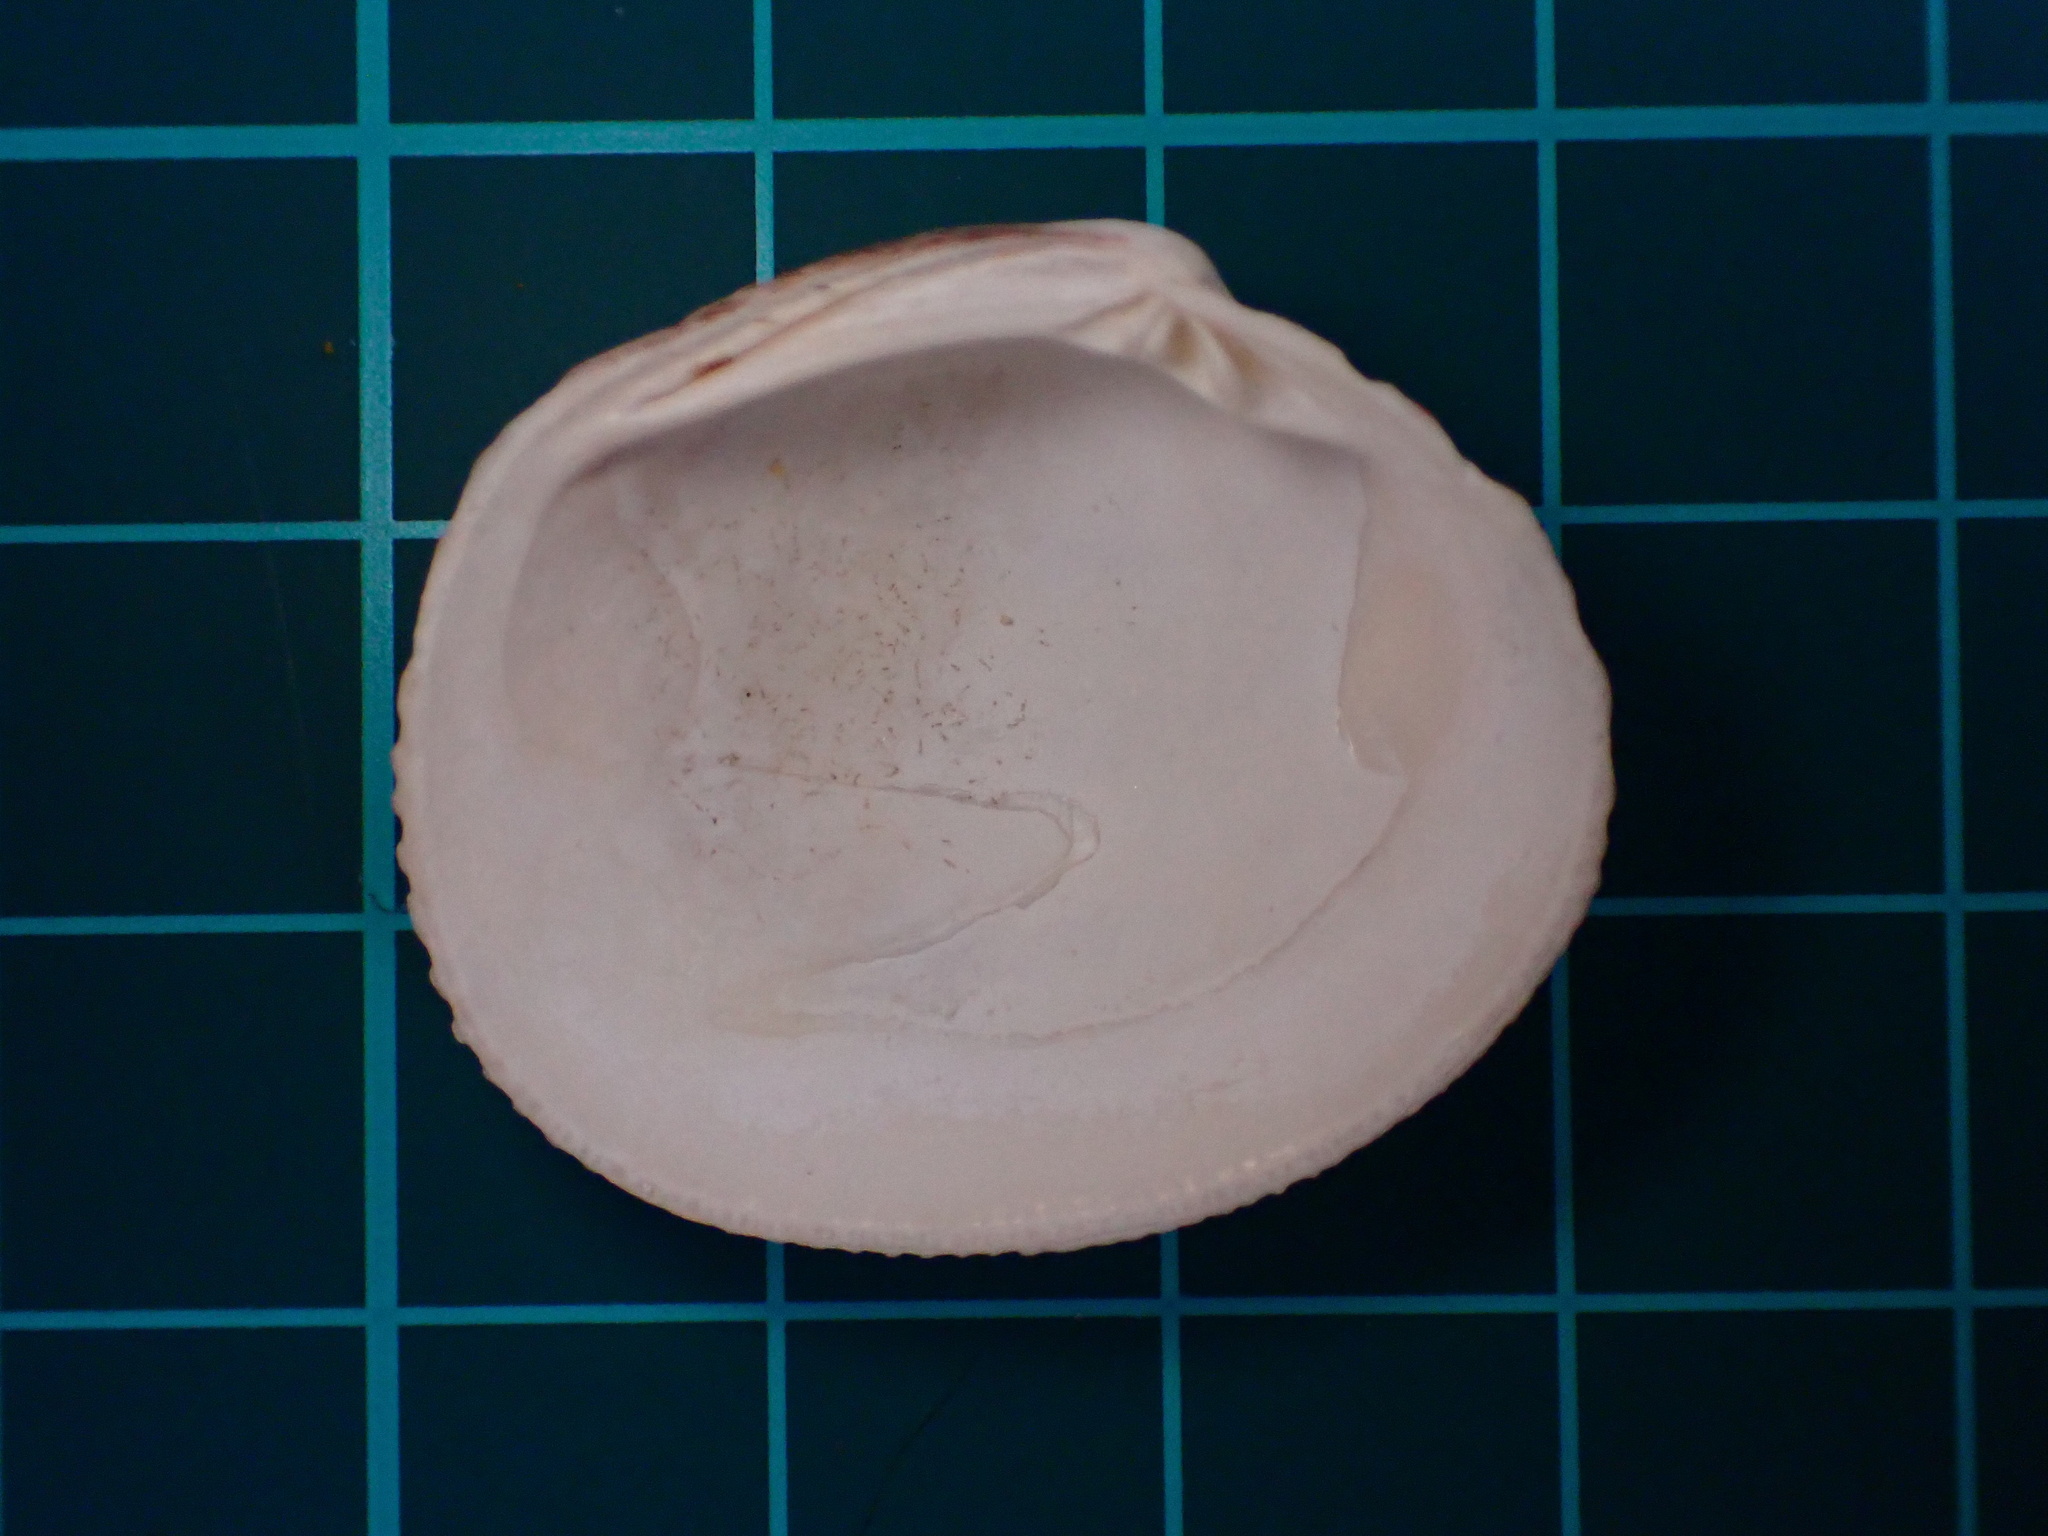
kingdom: Animalia
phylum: Mollusca
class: Bivalvia
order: Venerida
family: Veneridae
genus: Leukoma
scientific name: Leukoma staminea
